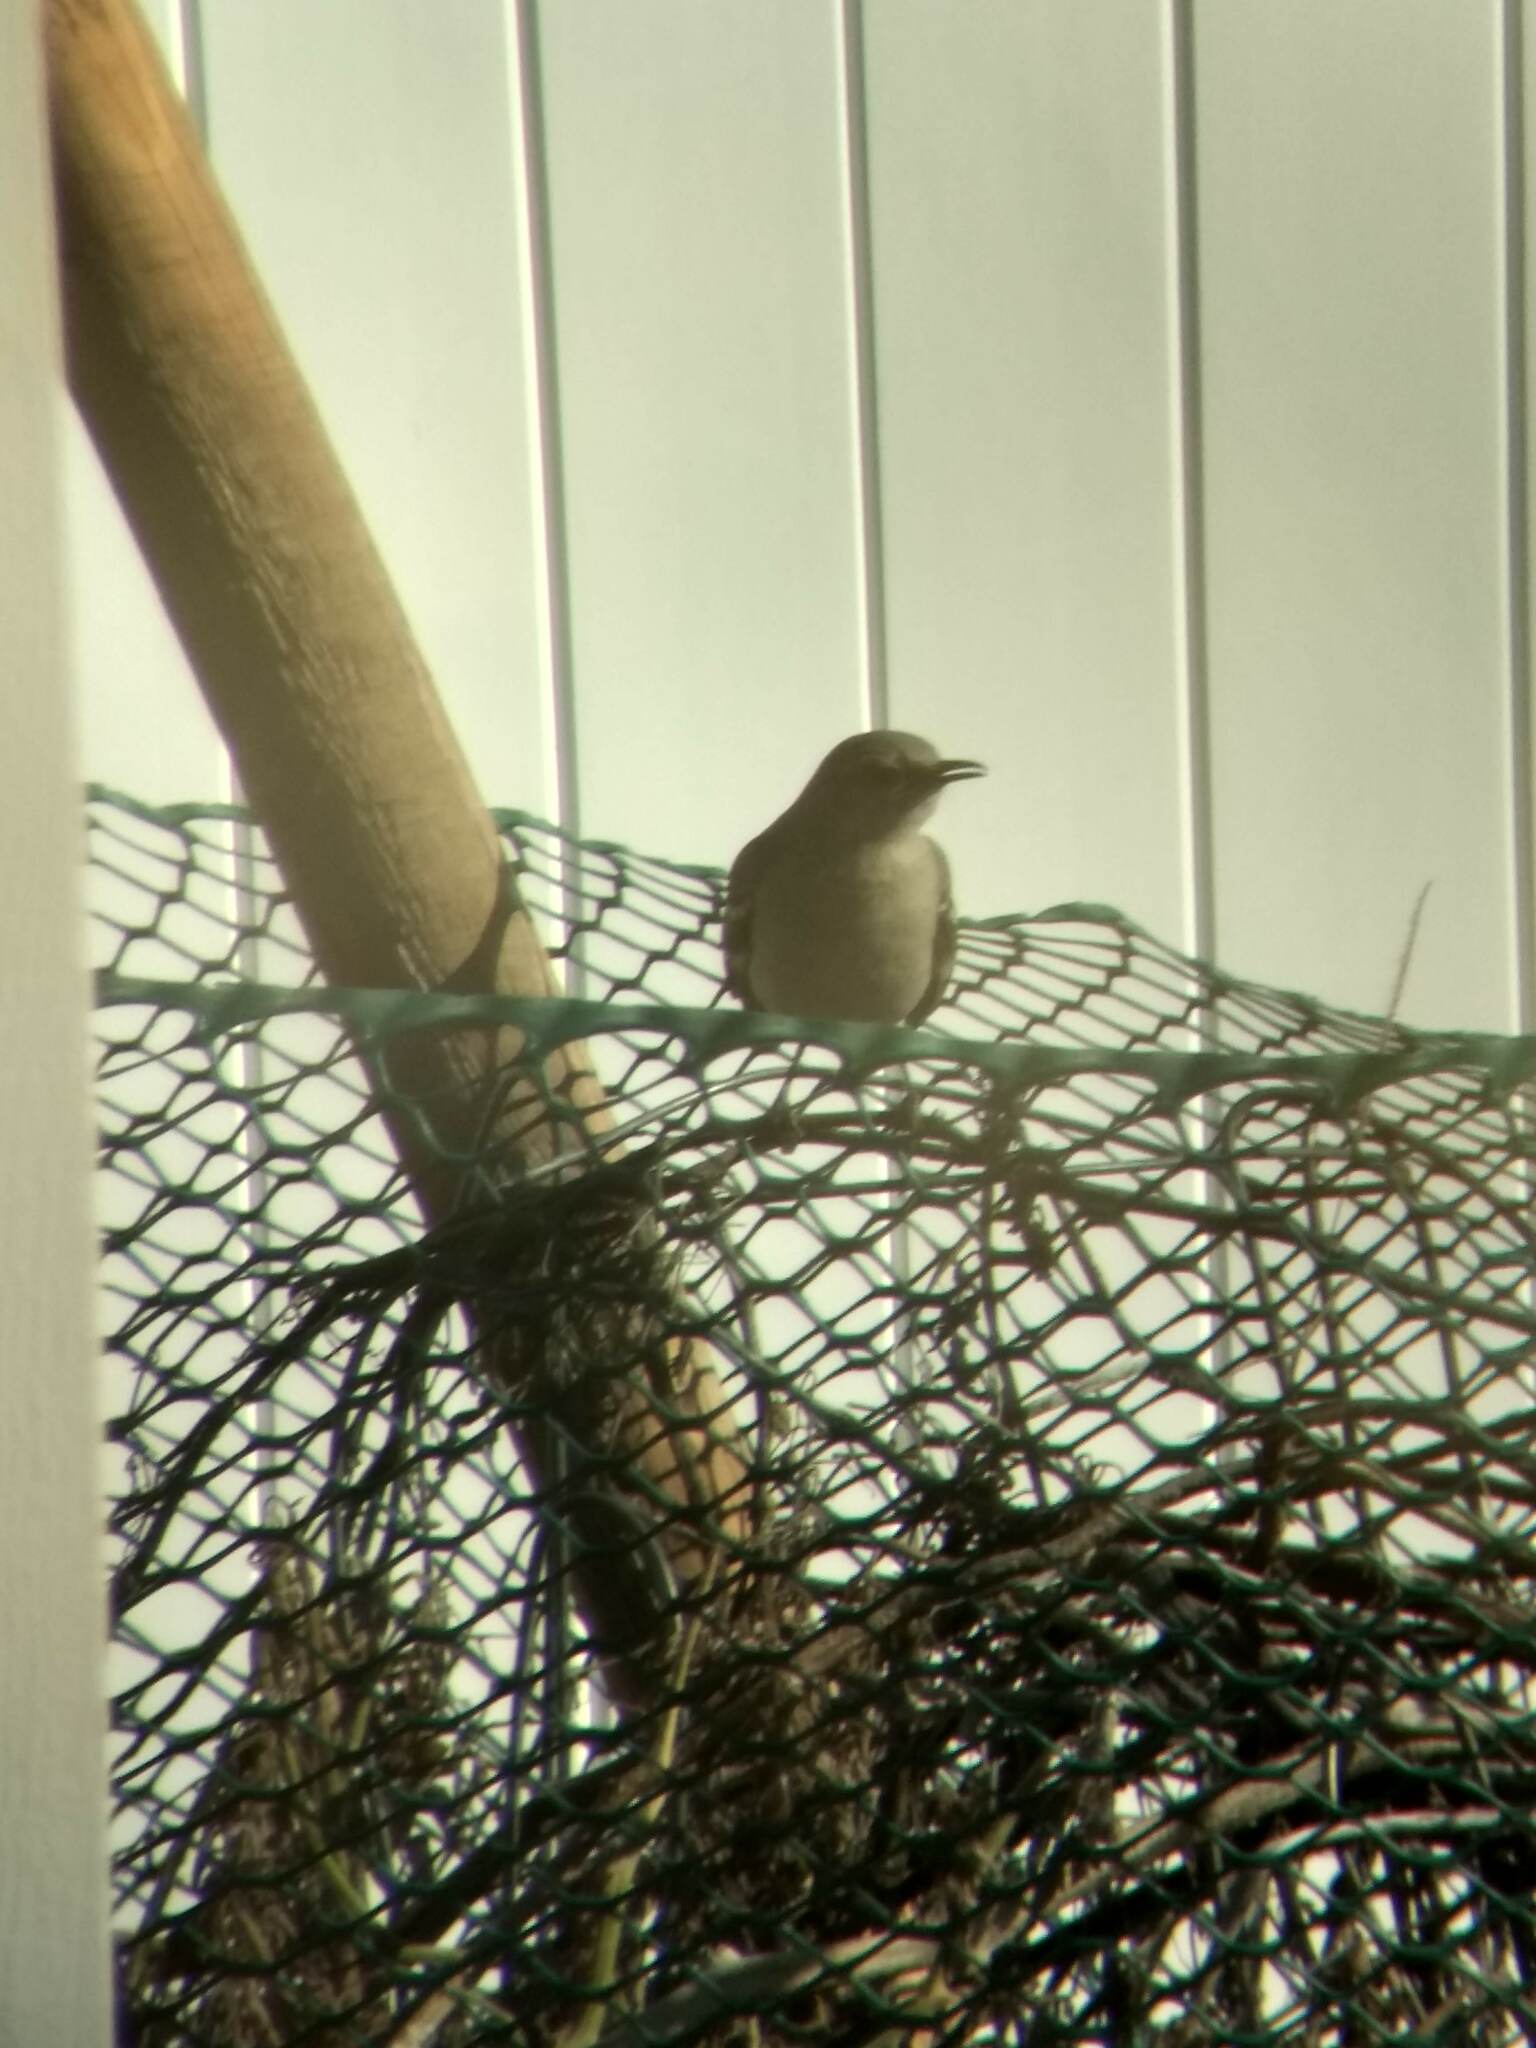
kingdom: Animalia
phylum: Chordata
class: Aves
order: Passeriformes
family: Mimidae
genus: Mimus
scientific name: Mimus polyglottos
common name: Northern mockingbird
